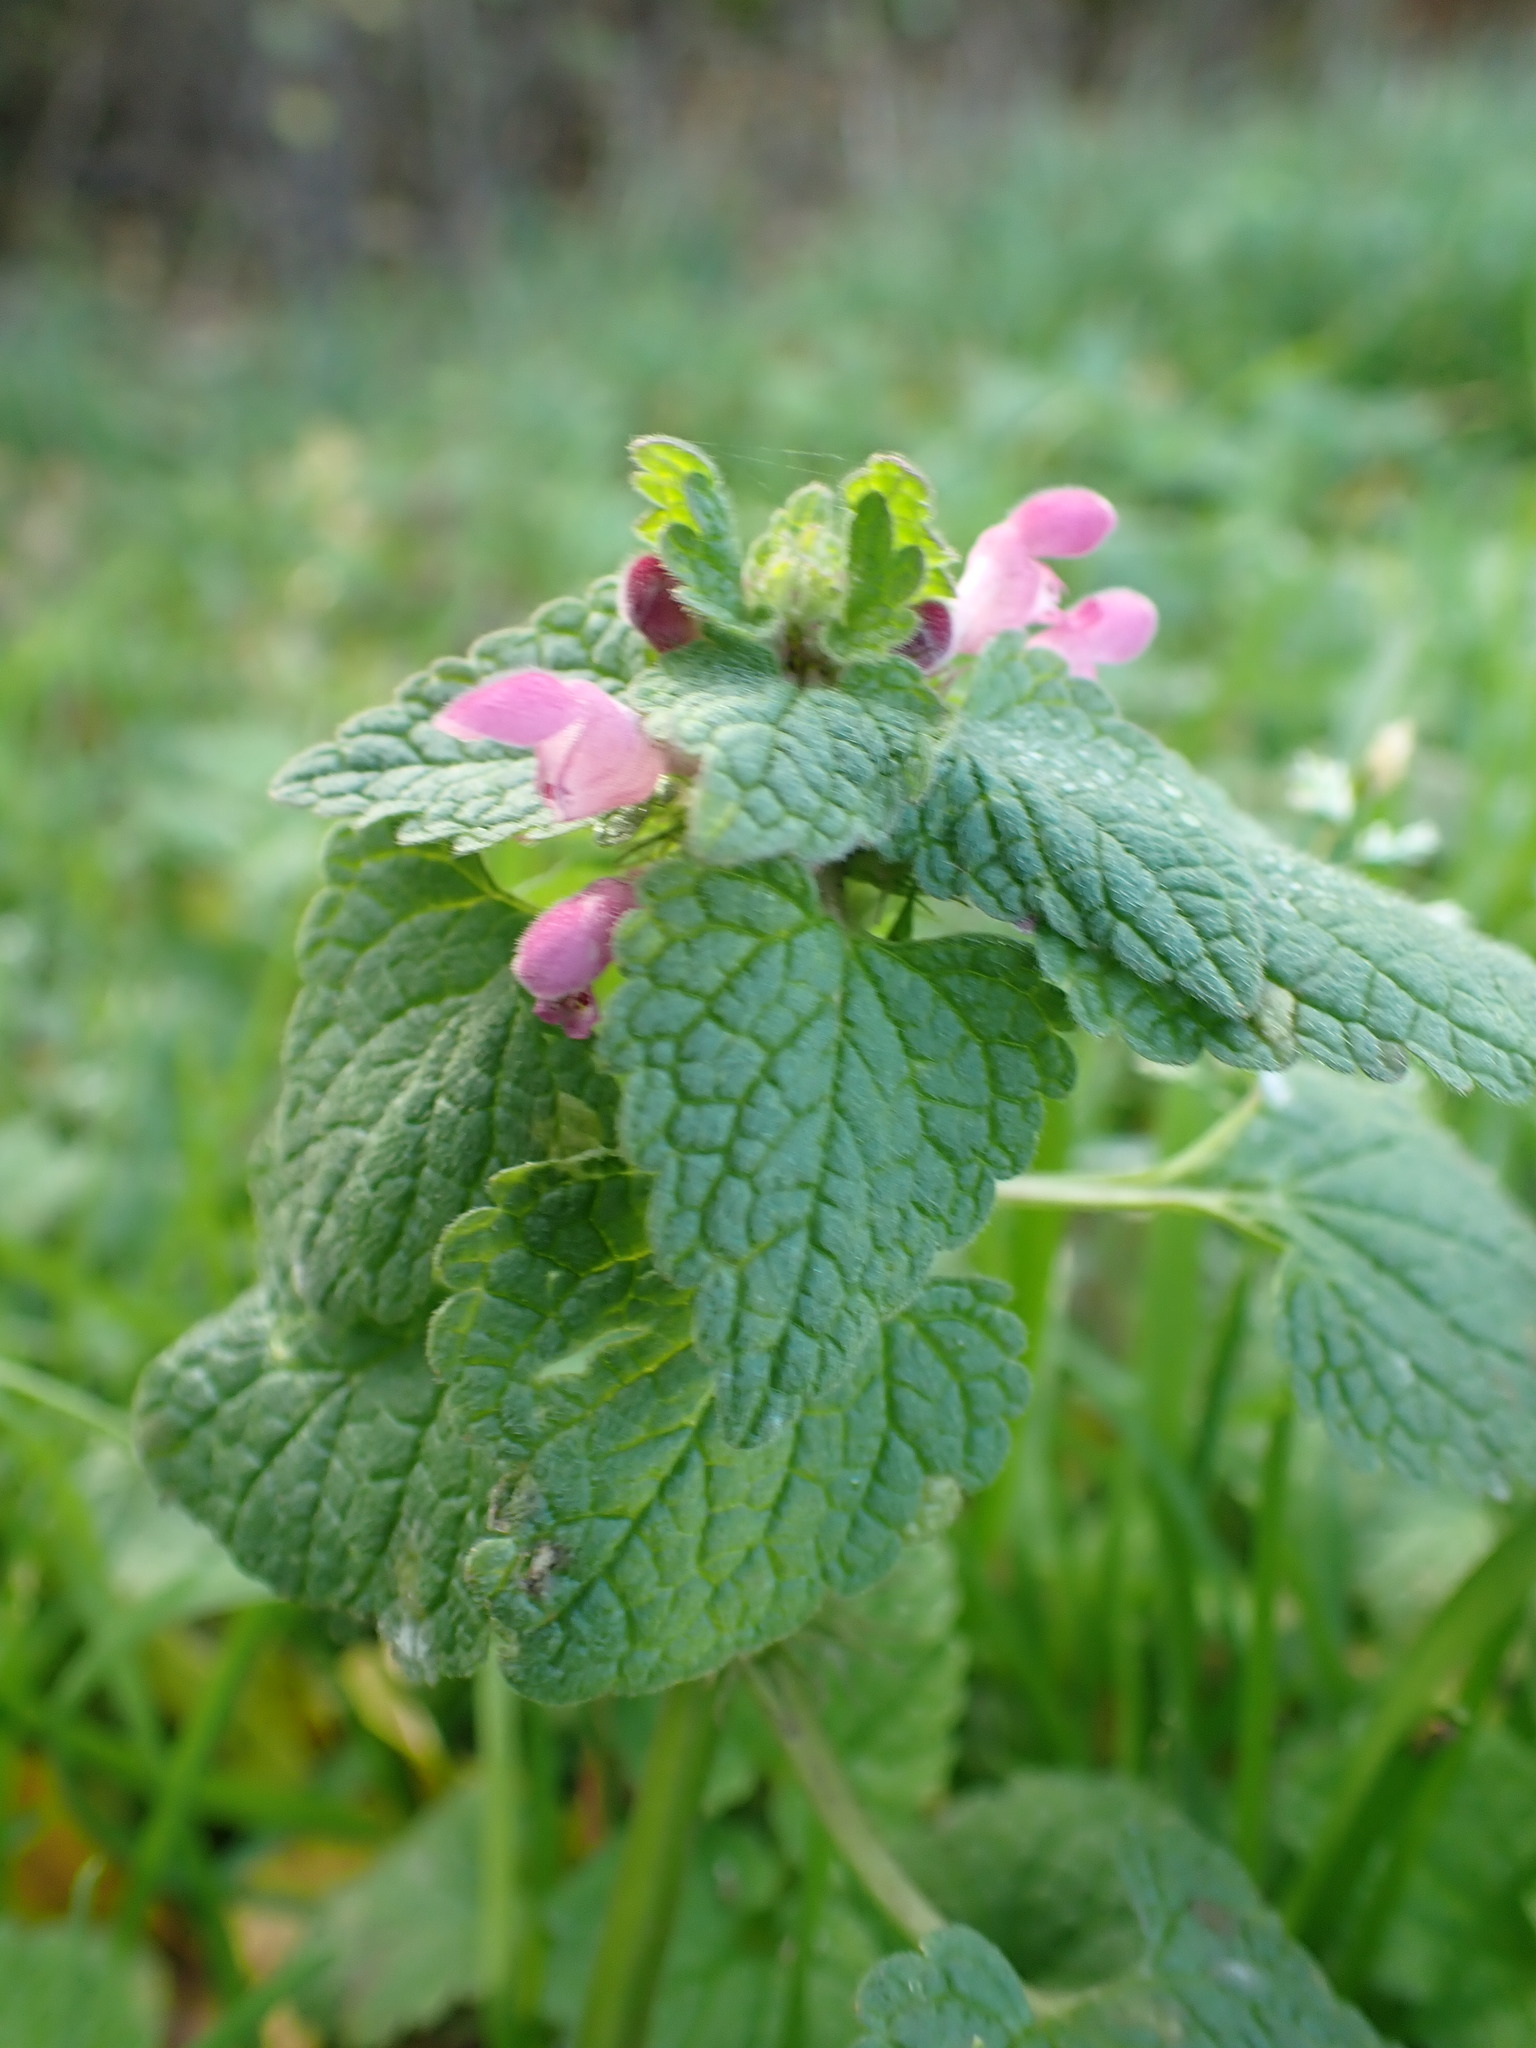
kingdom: Plantae
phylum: Tracheophyta
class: Magnoliopsida
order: Lamiales
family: Lamiaceae
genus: Lamium
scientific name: Lamium purpureum
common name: Red dead-nettle
